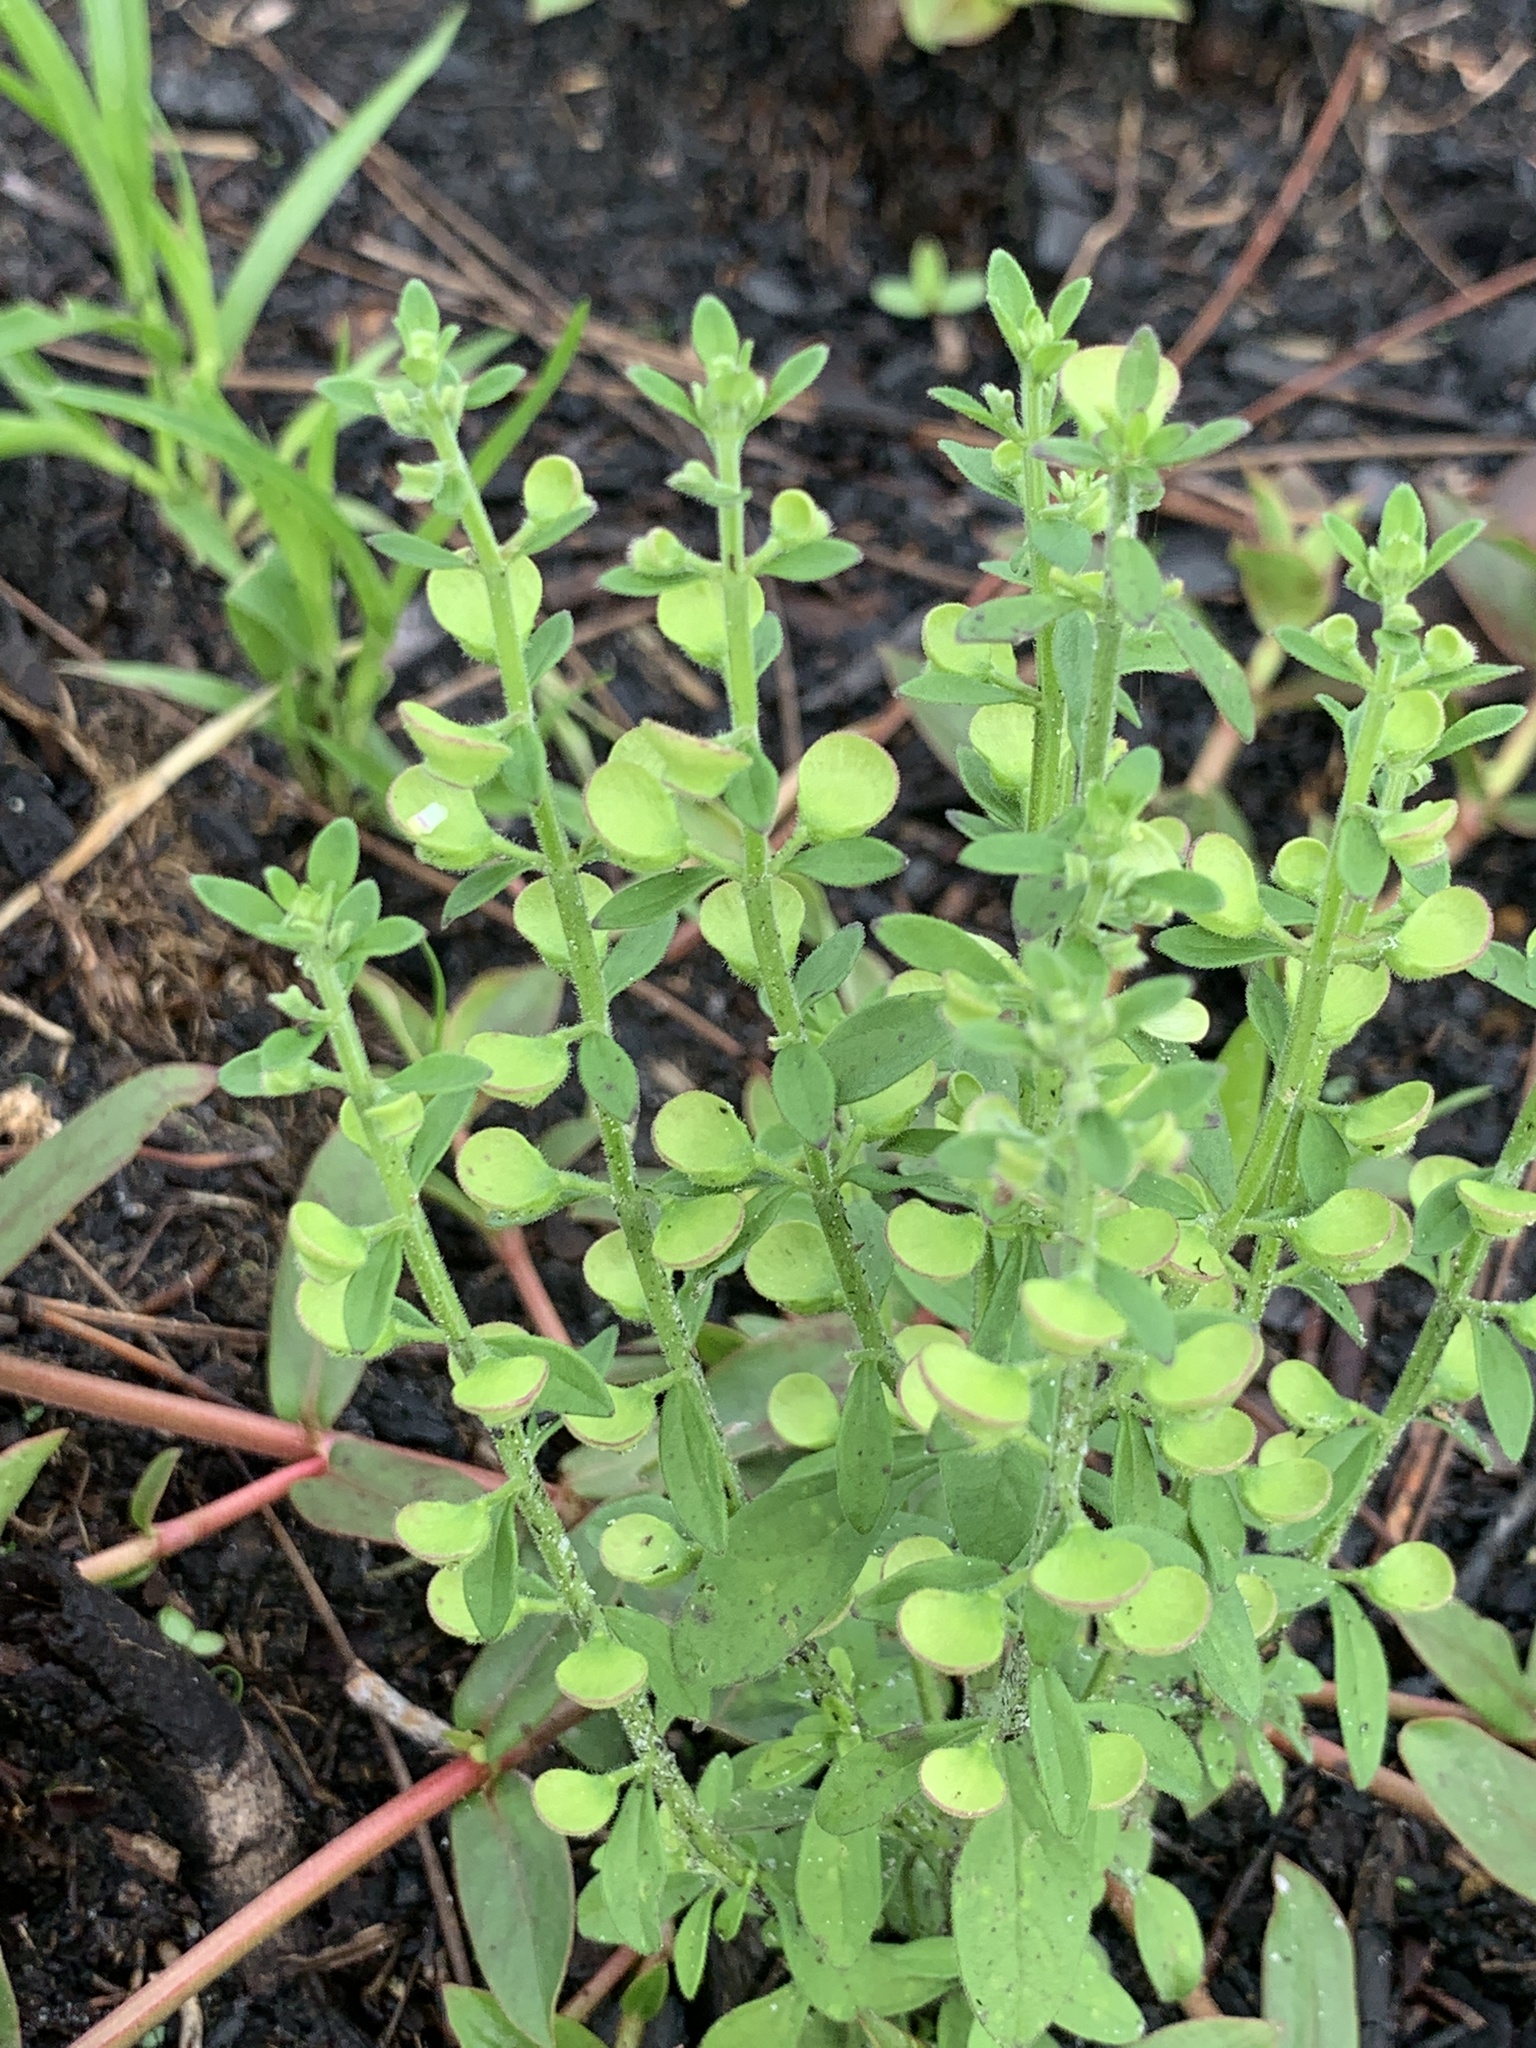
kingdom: Plantae
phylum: Tracheophyta
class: Magnoliopsida
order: Lamiales
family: Lamiaceae
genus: Scutellaria
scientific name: Scutellaria integrifolia
